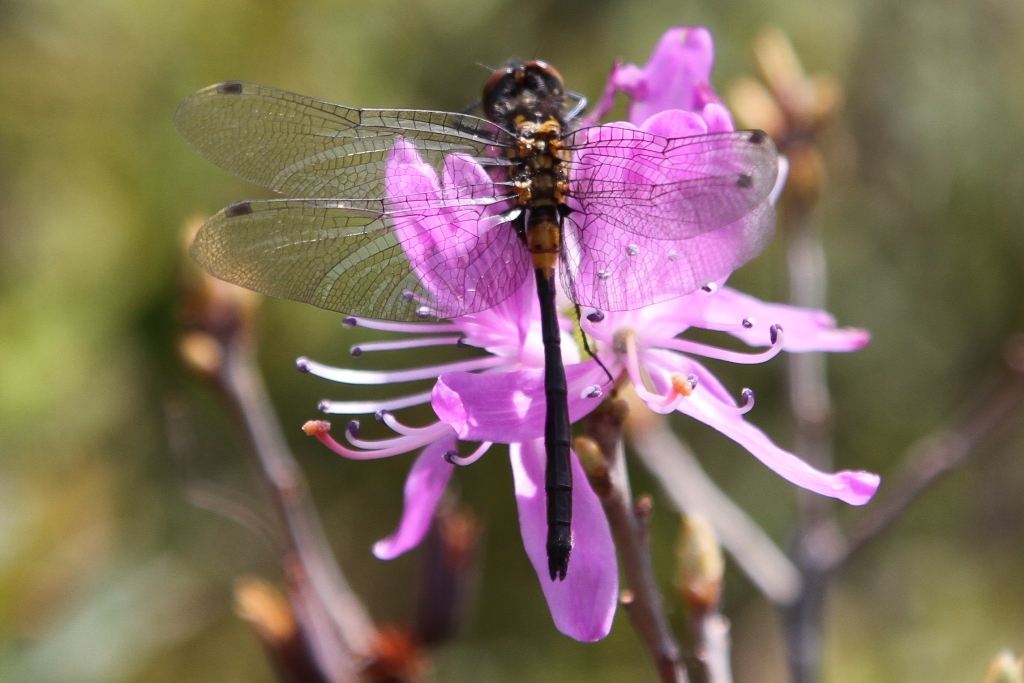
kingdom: Animalia
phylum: Arthropoda
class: Insecta
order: Odonata
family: Libellulidae
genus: Leucorrhinia
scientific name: Leucorrhinia glacialis
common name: Crimson-ringed whiteface
